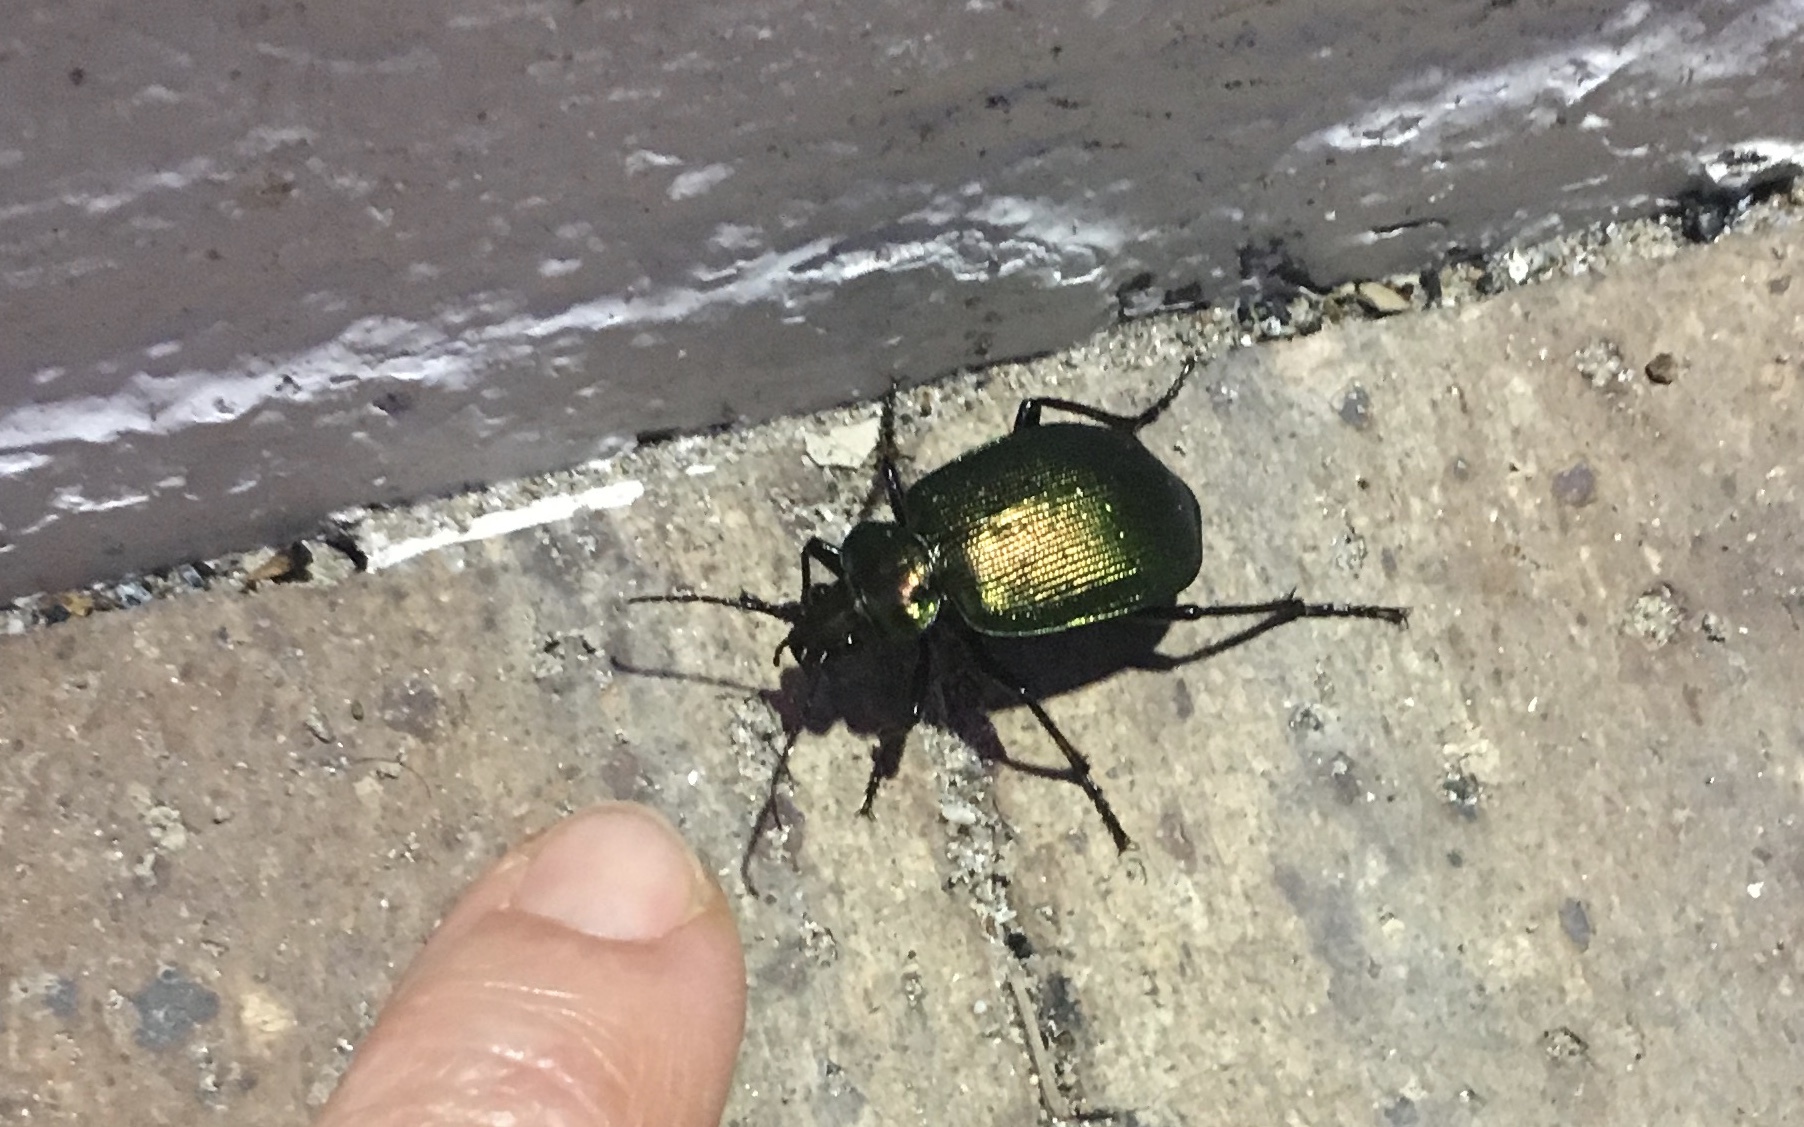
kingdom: Animalia
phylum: Arthropoda
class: Insecta
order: Coleoptera
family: Carabidae
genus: Calosoma
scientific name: Calosoma schayeri
